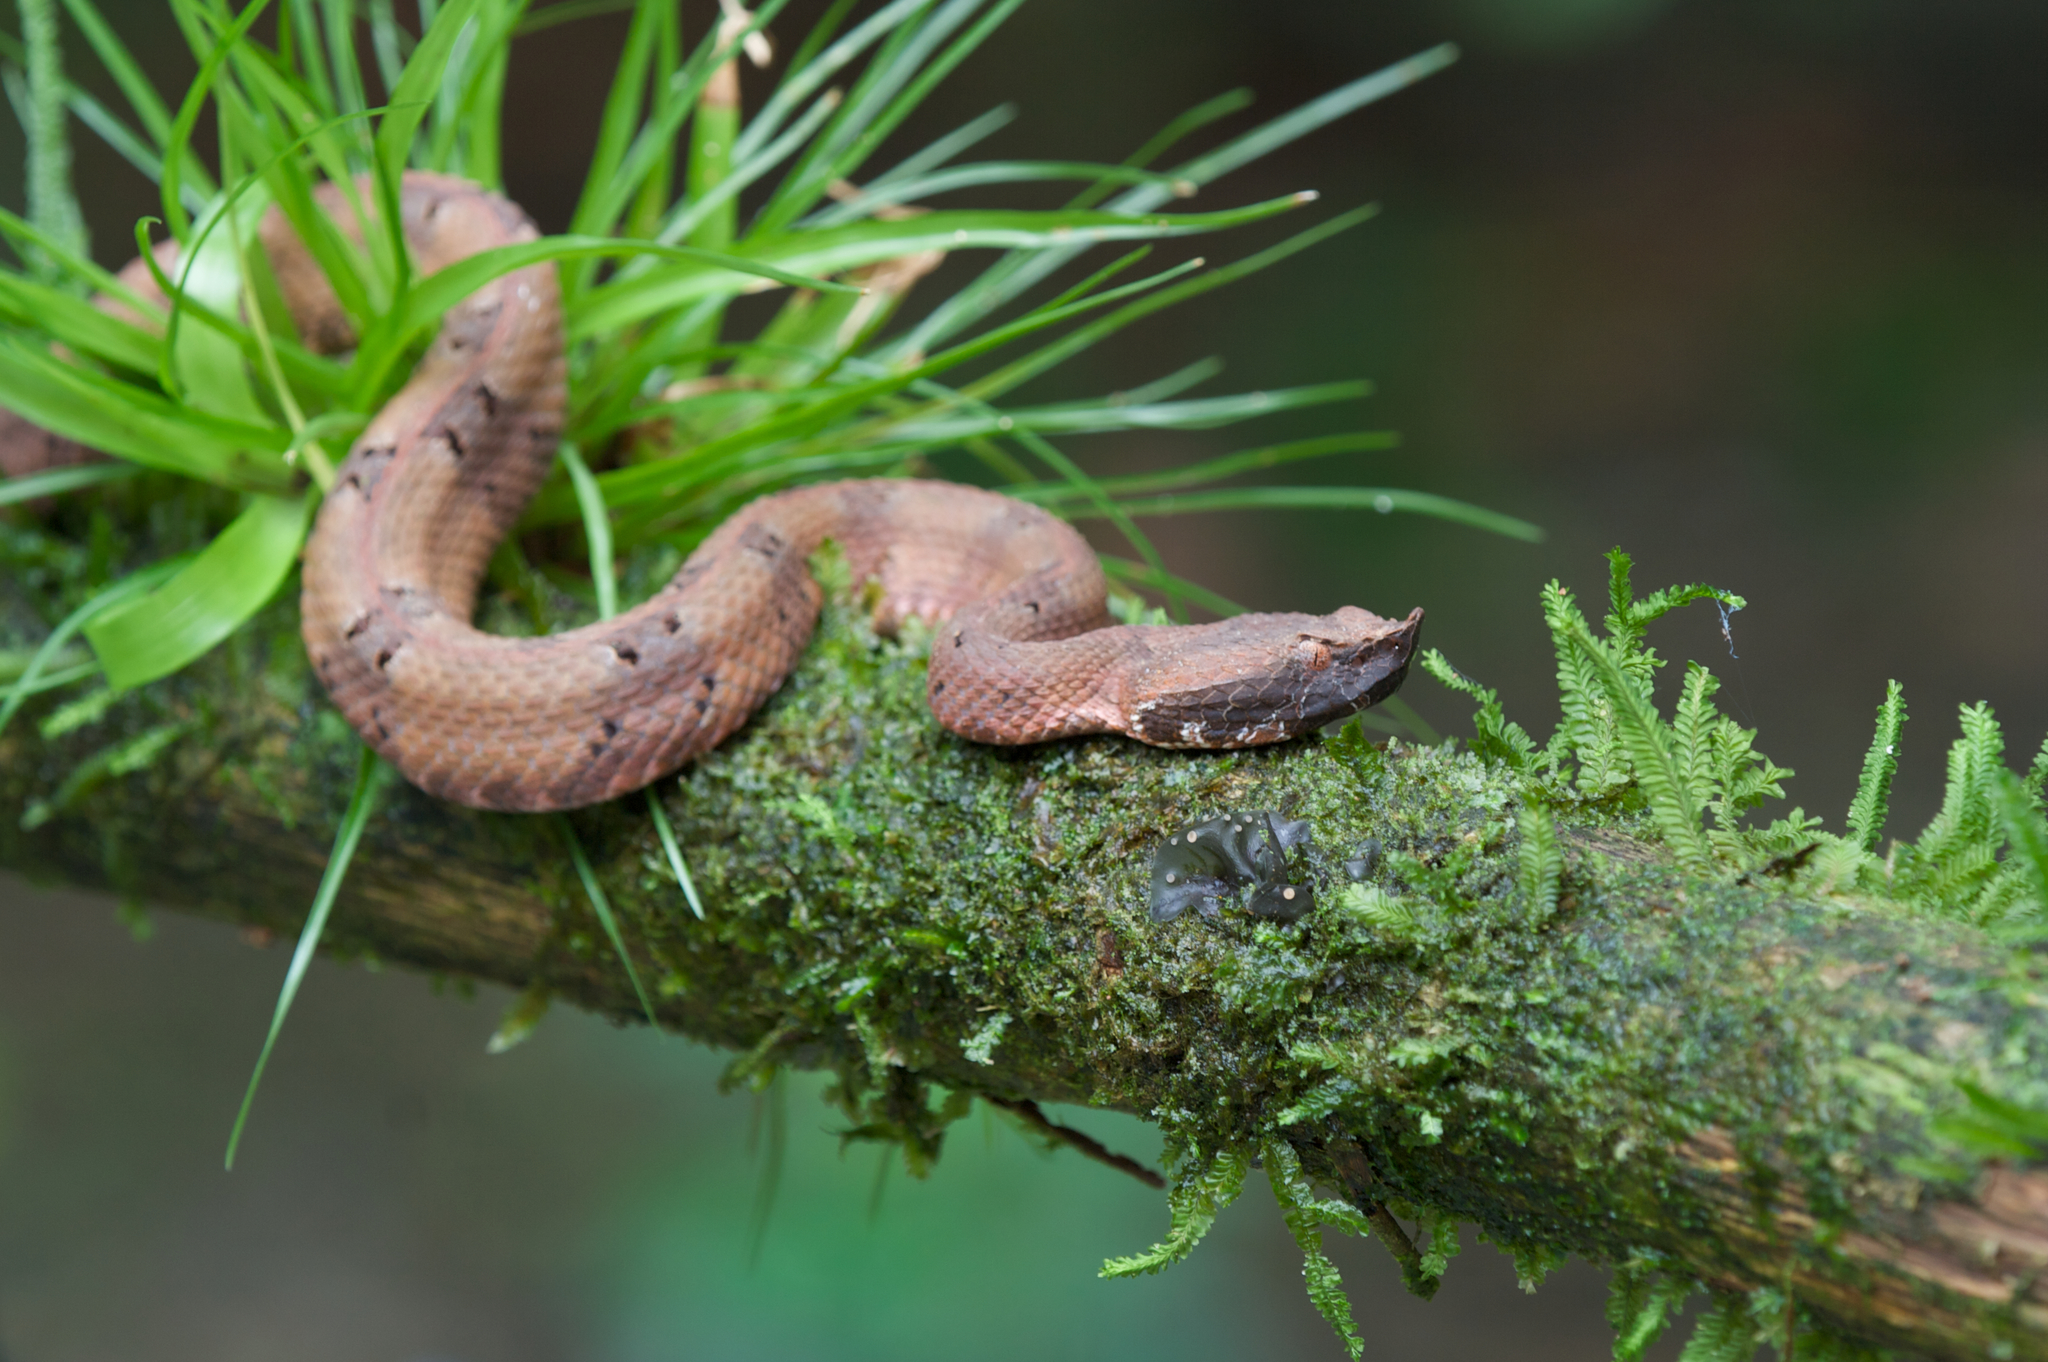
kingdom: Animalia
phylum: Chordata
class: Squamata
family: Viperidae
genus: Porthidium
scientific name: Porthidium nasutum
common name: Hognosed pit viper
